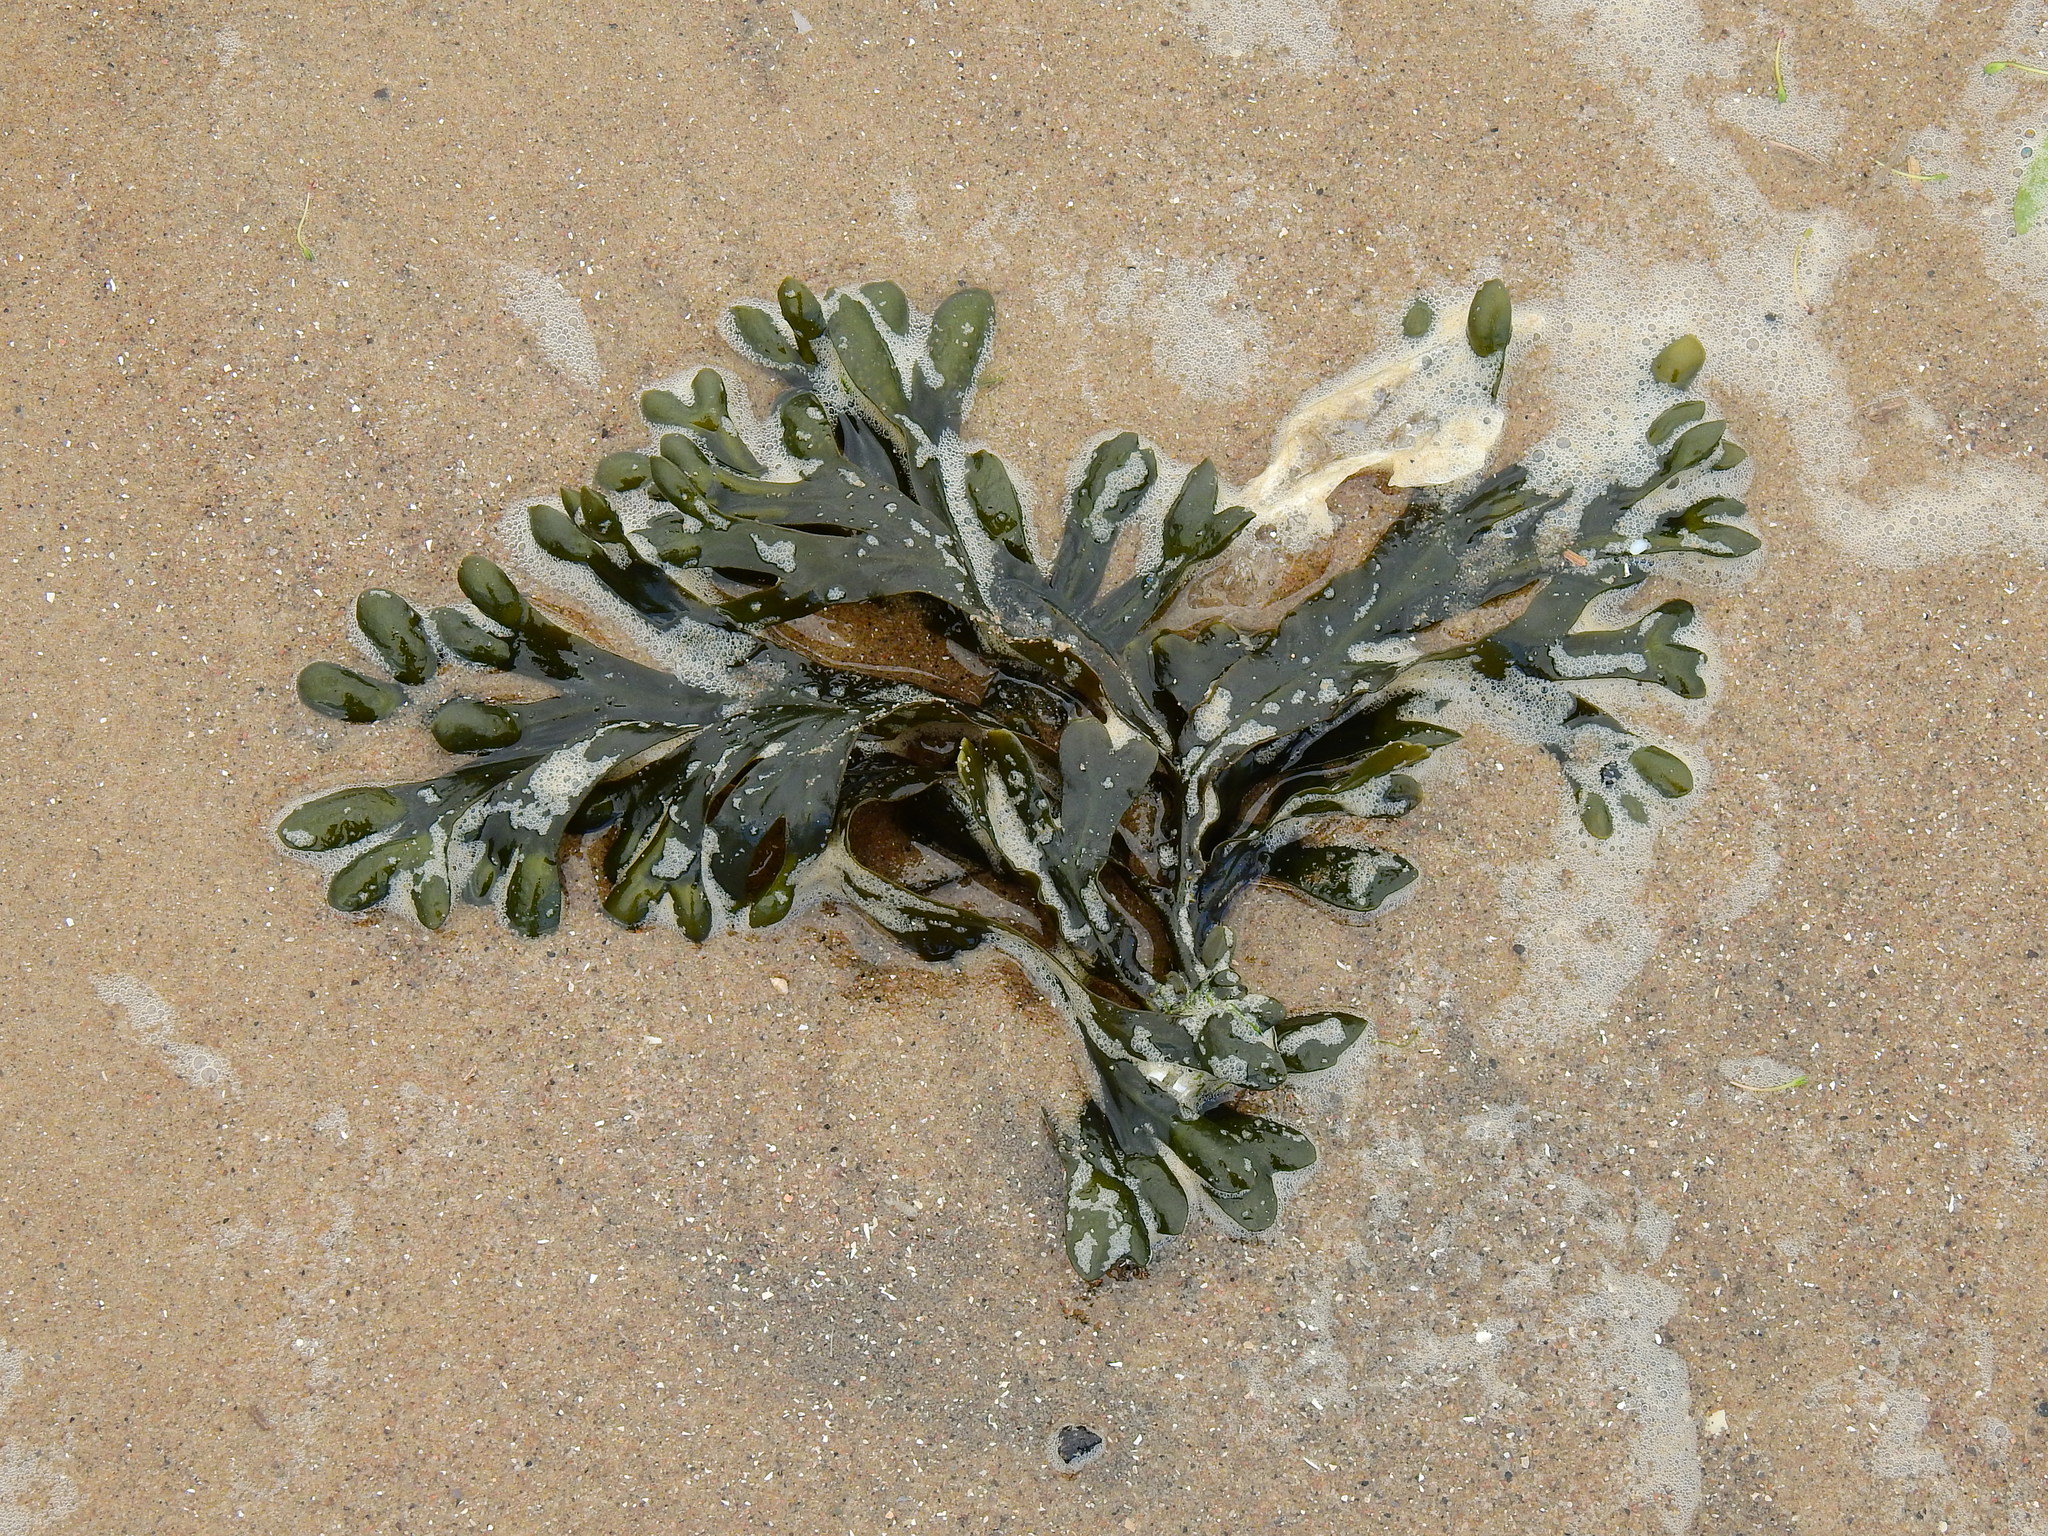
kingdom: Chromista
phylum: Ochrophyta
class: Phaeophyceae
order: Fucales
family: Fucaceae
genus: Fucus
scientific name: Fucus vesiculosus
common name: Bladder wrack
